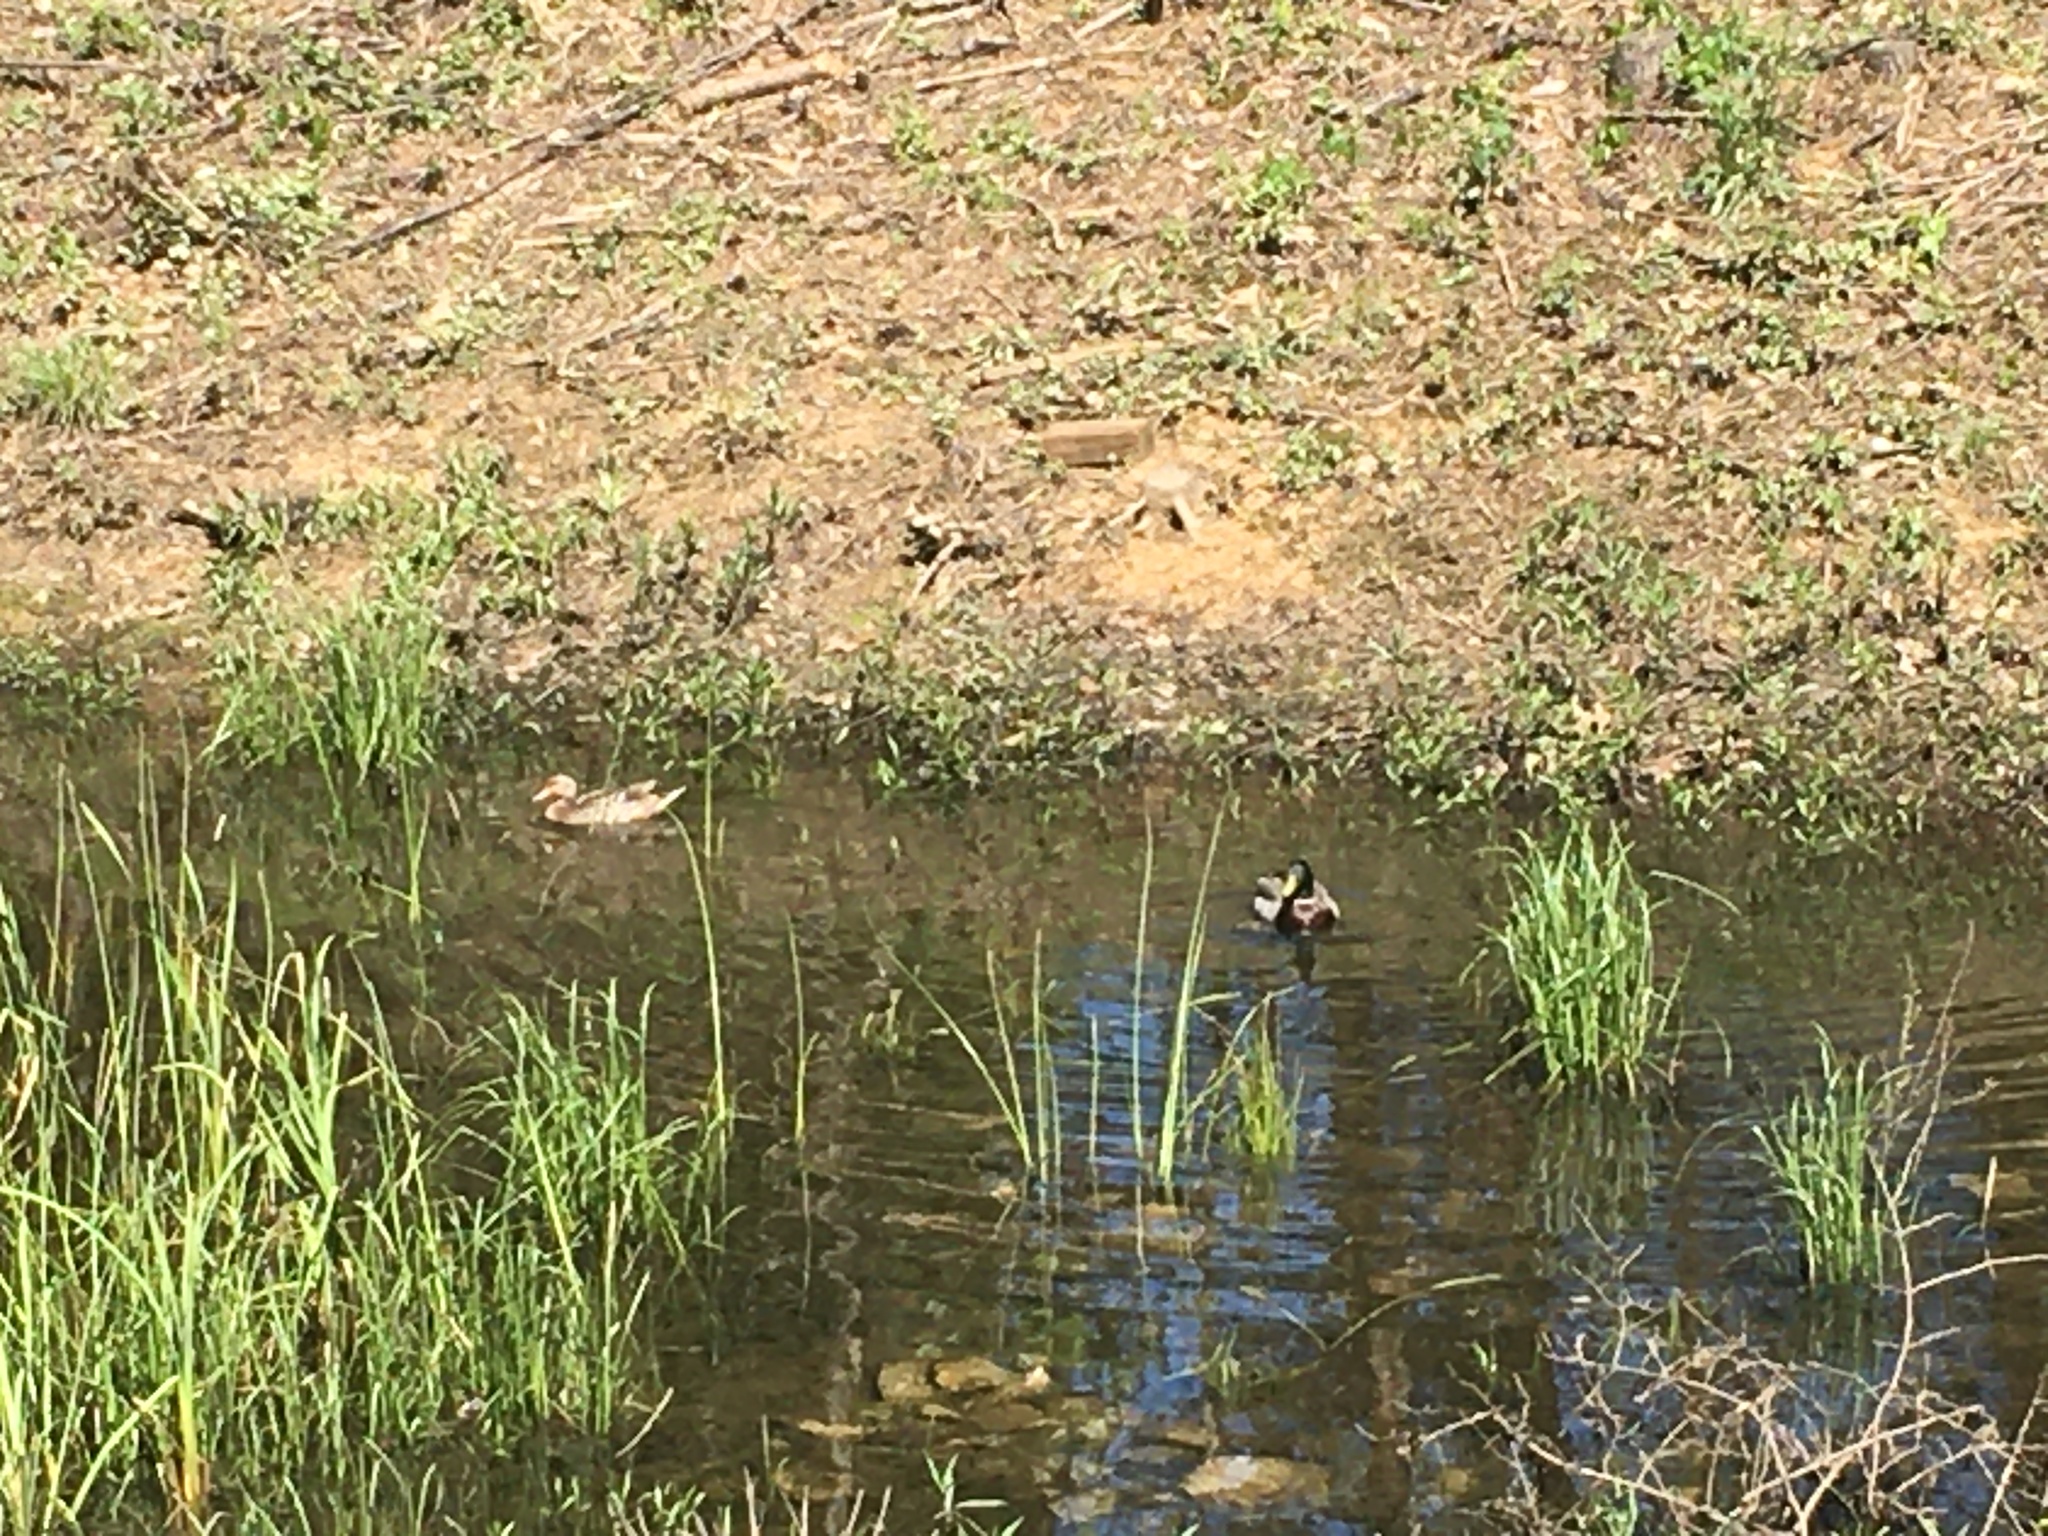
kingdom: Animalia
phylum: Chordata
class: Aves
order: Anseriformes
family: Anatidae
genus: Anas
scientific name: Anas platyrhynchos
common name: Mallard
